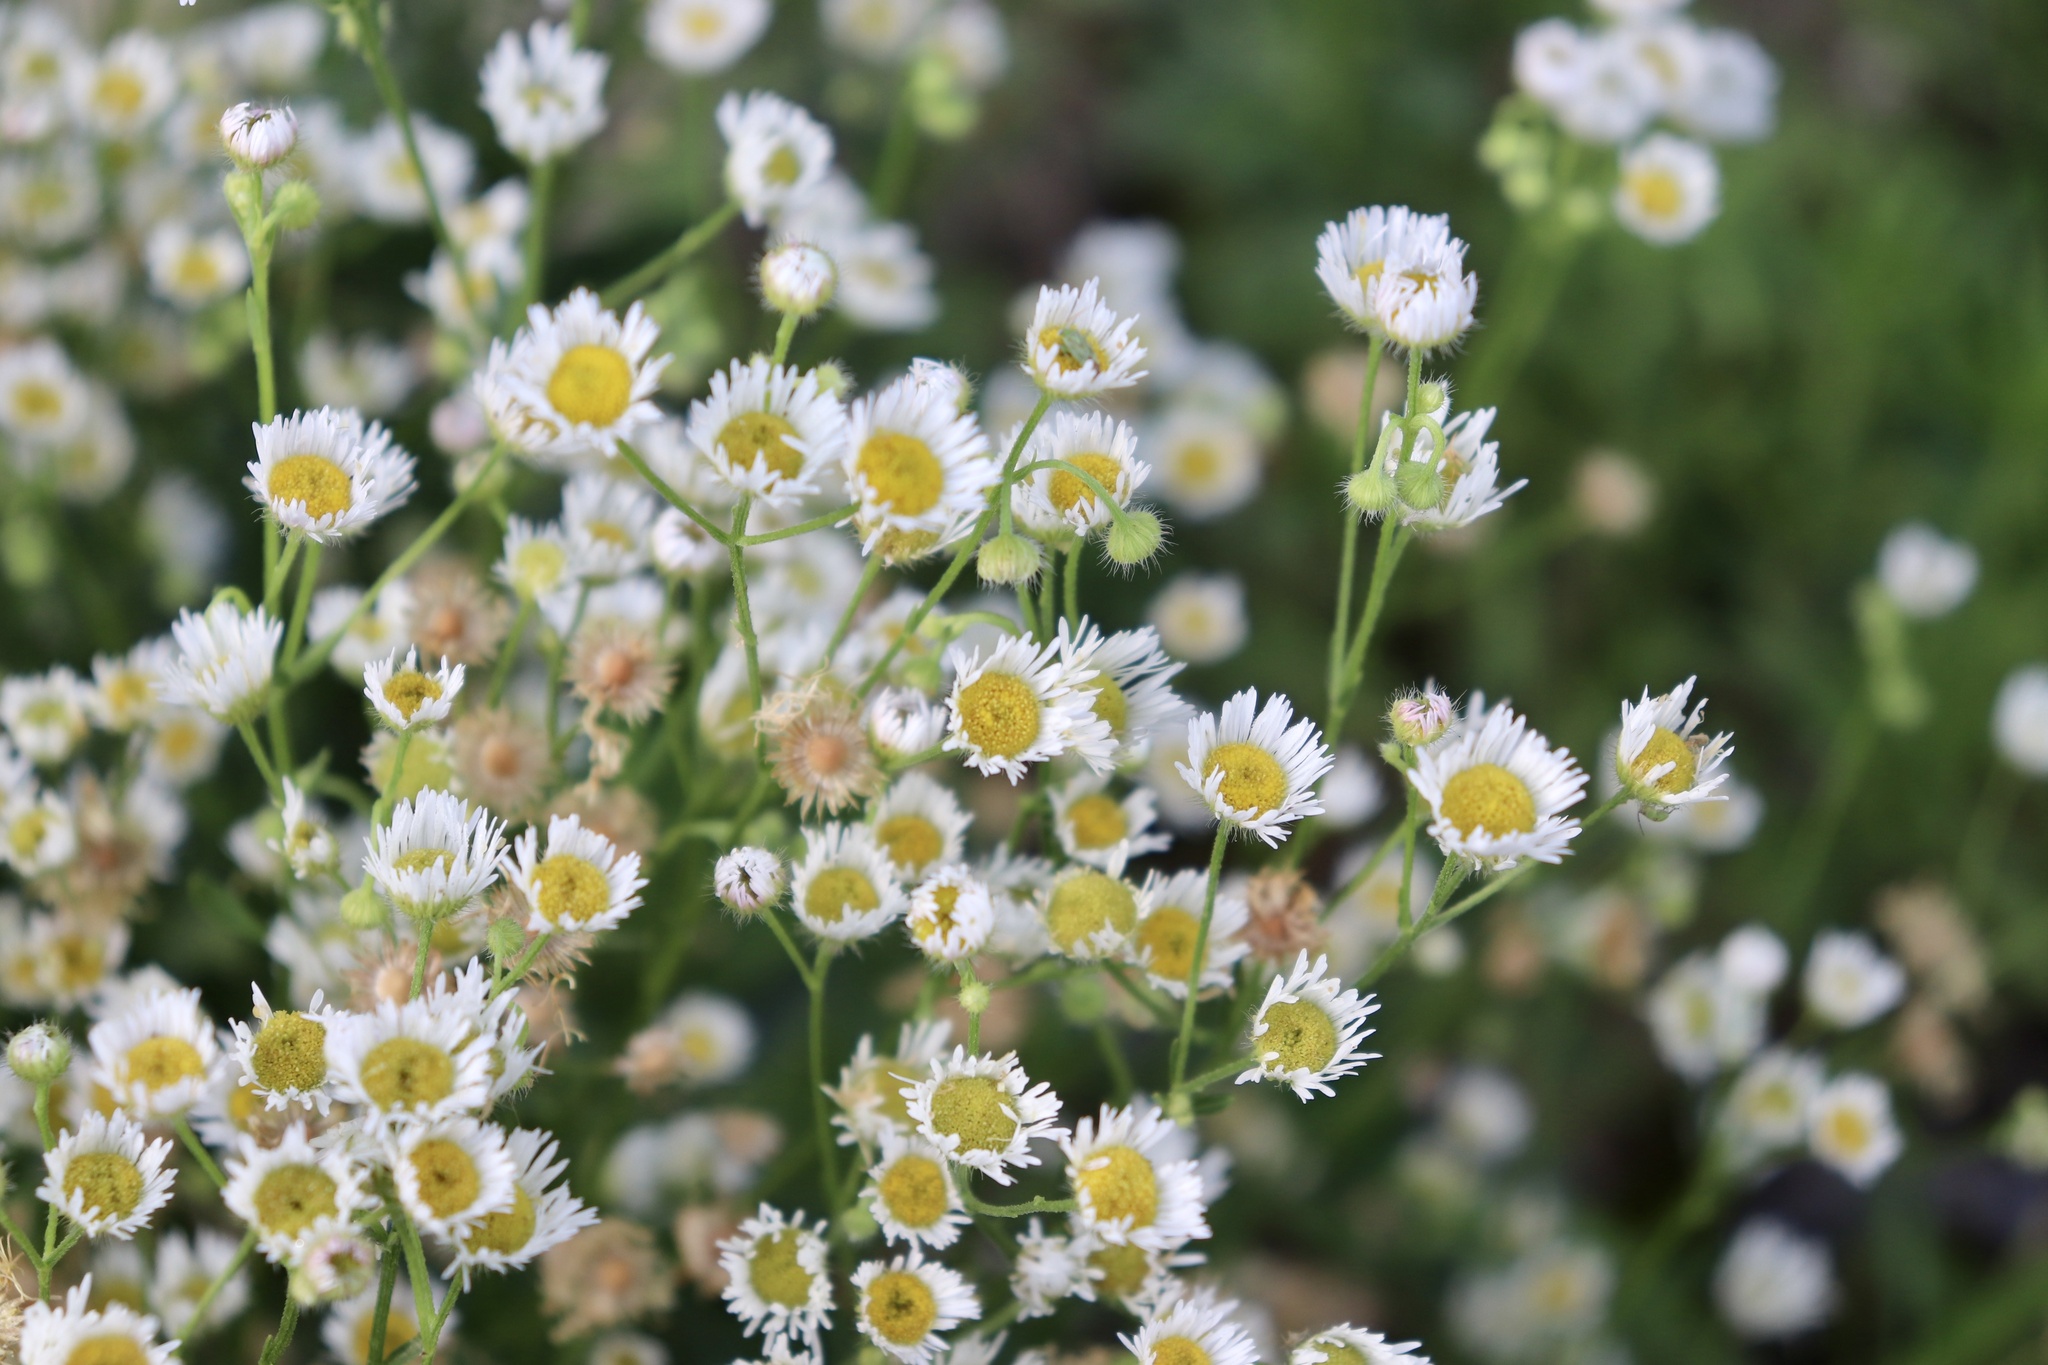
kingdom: Plantae
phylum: Tracheophyta
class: Magnoliopsida
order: Asterales
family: Asteraceae
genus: Erigeron
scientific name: Erigeron annuus
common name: Tall fleabane
